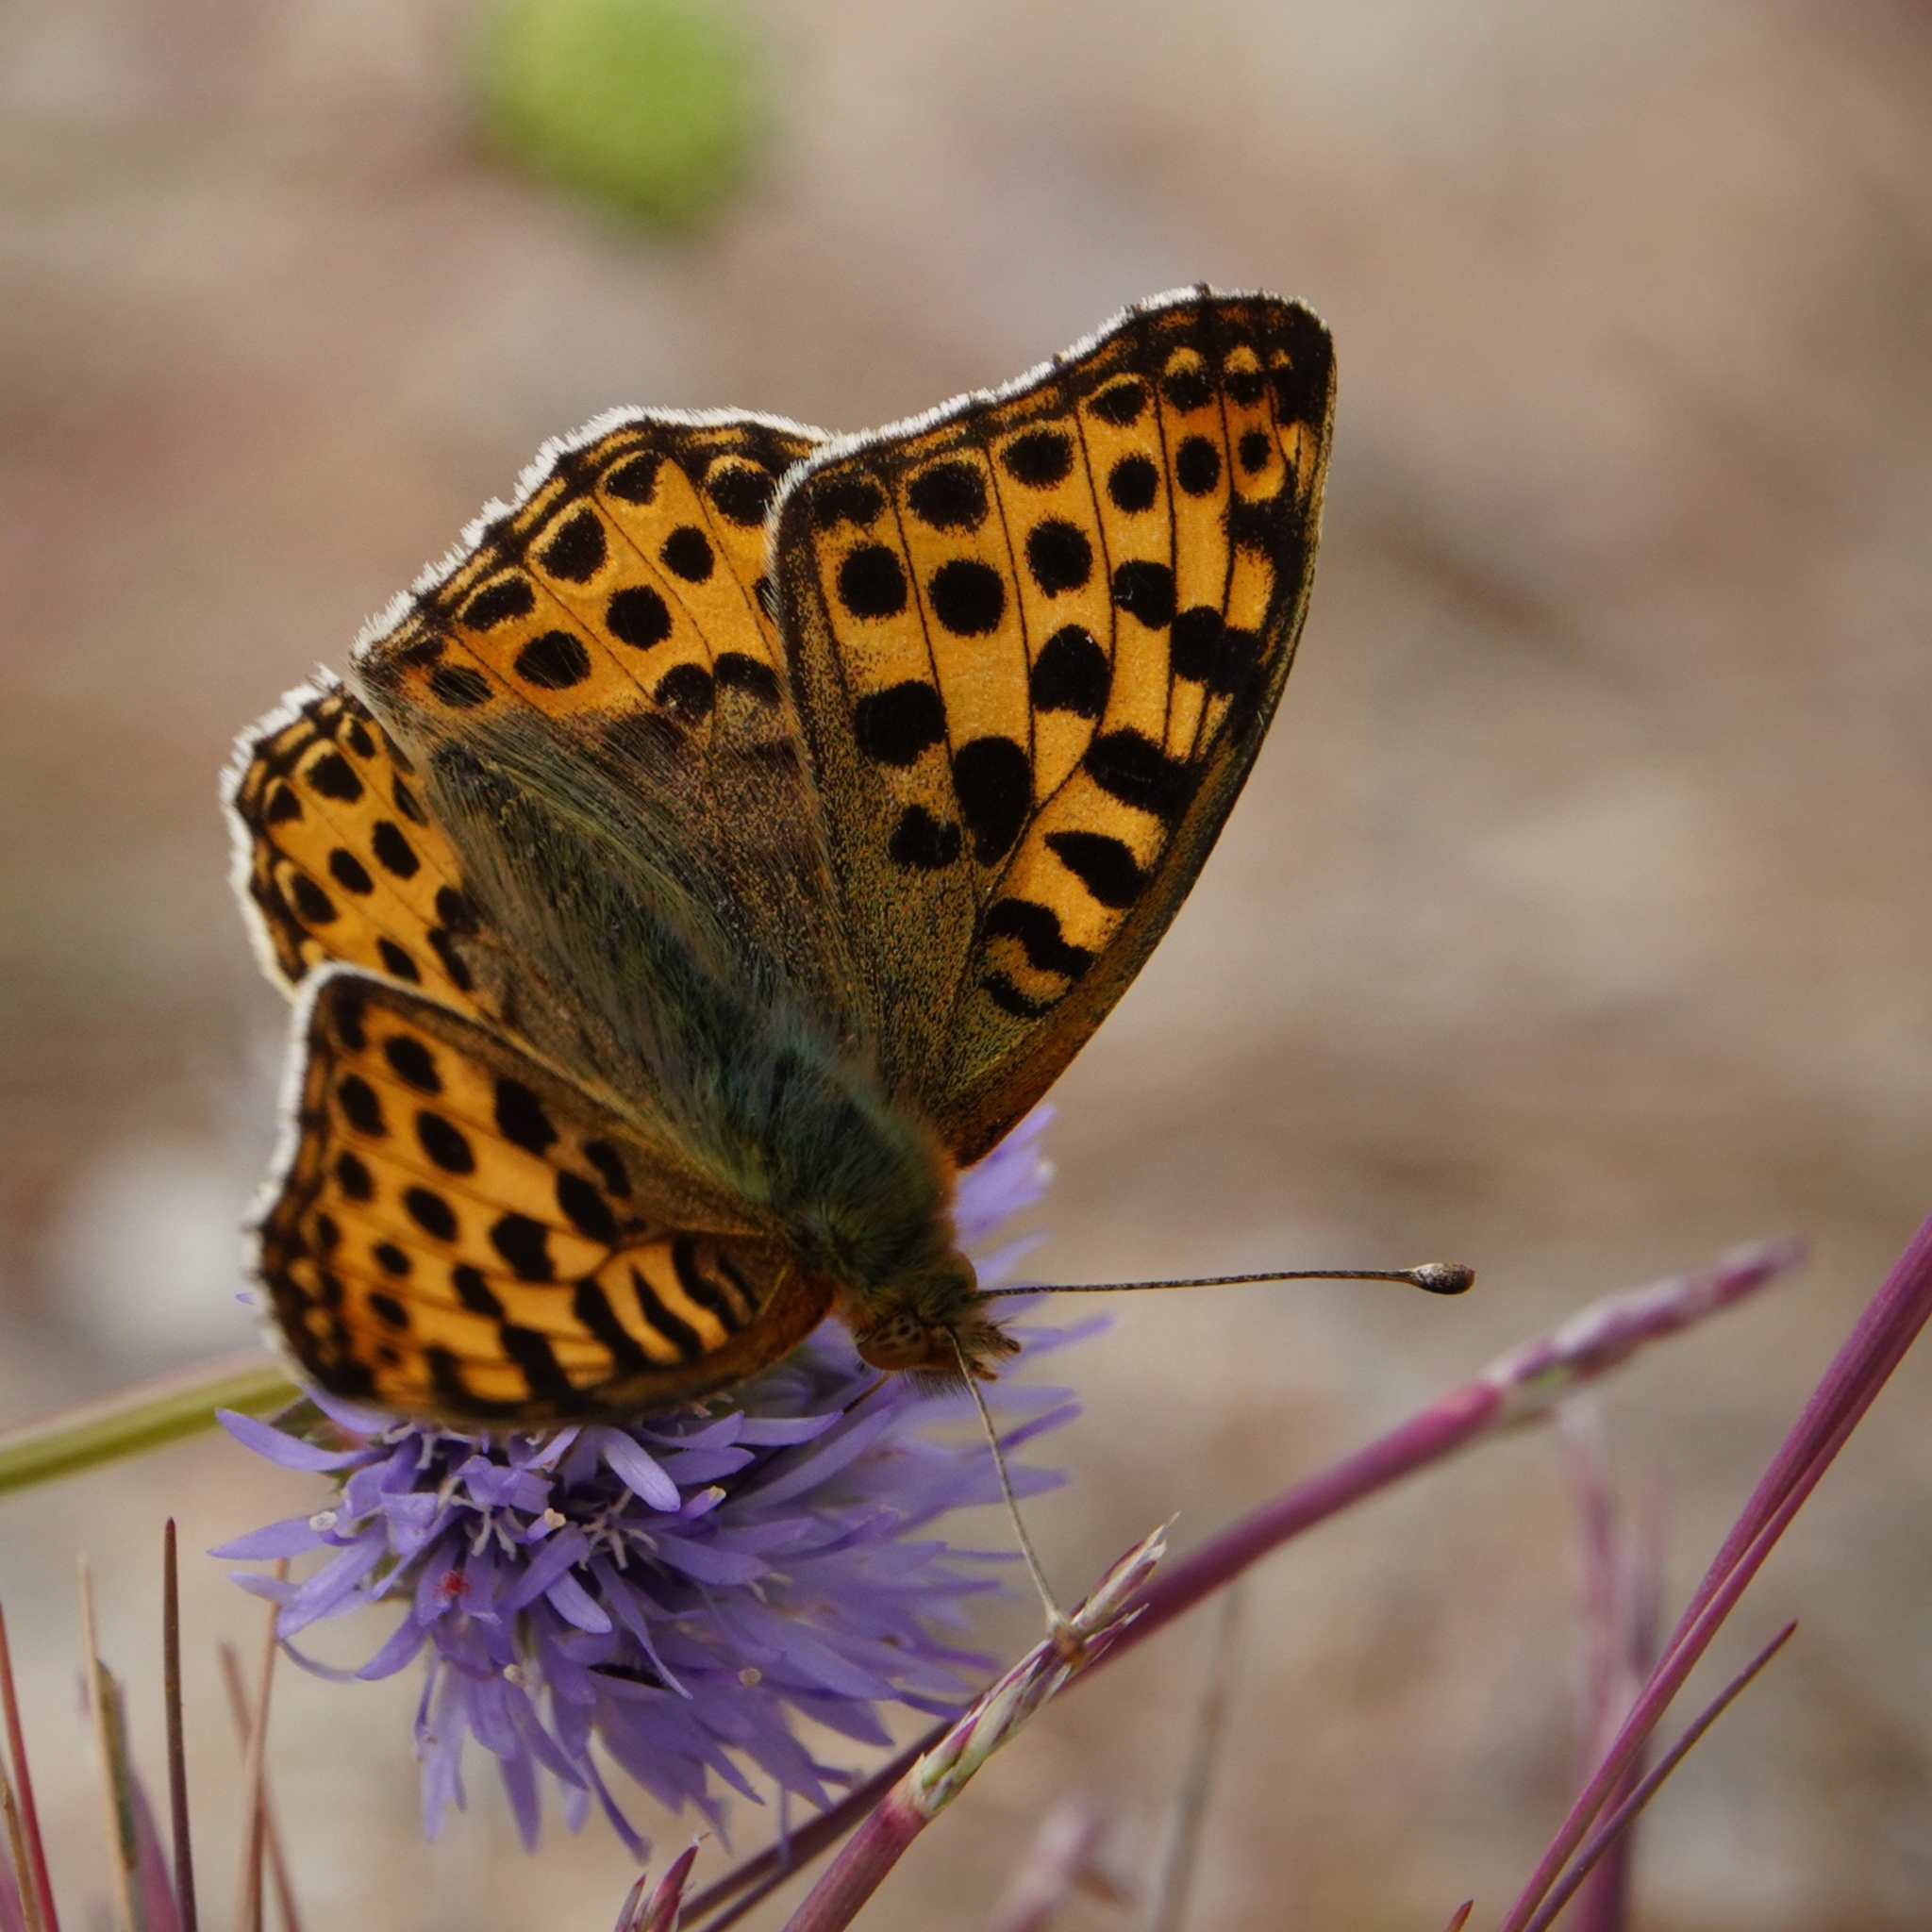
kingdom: Animalia
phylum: Arthropoda
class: Insecta
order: Lepidoptera
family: Nymphalidae
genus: Issoria
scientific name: Issoria lathonia
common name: Queen of spain fritillary
